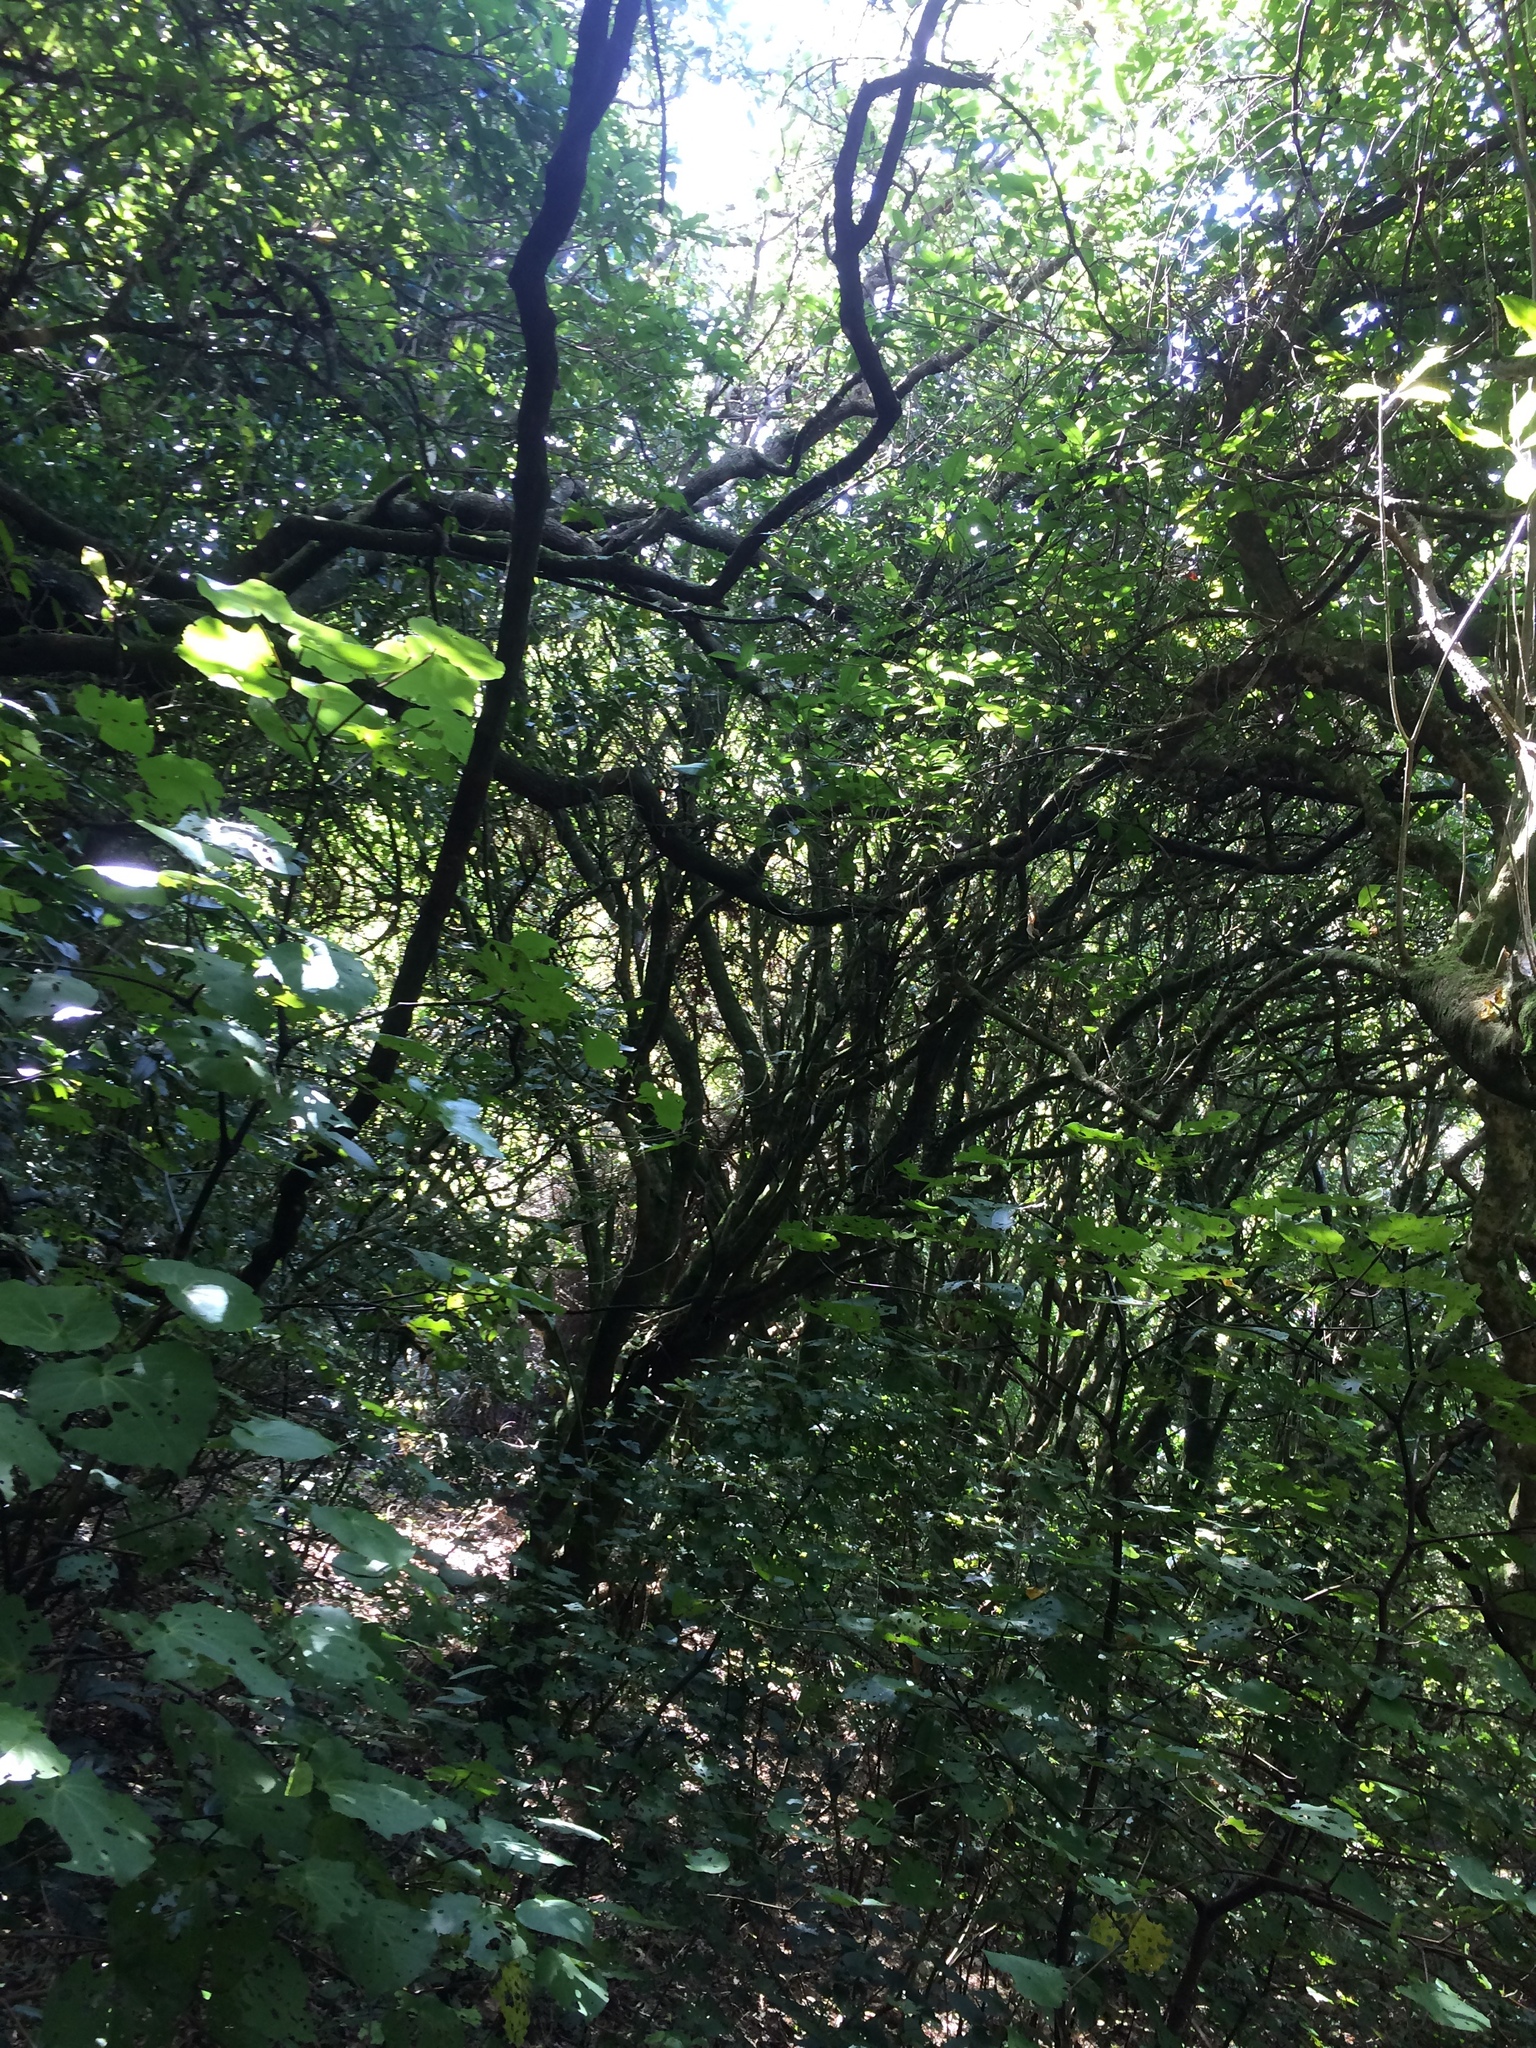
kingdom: Animalia
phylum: Chordata
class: Aves
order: Passeriformes
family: Acanthizidae
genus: Gerygone
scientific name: Gerygone igata
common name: Grey gerygone
